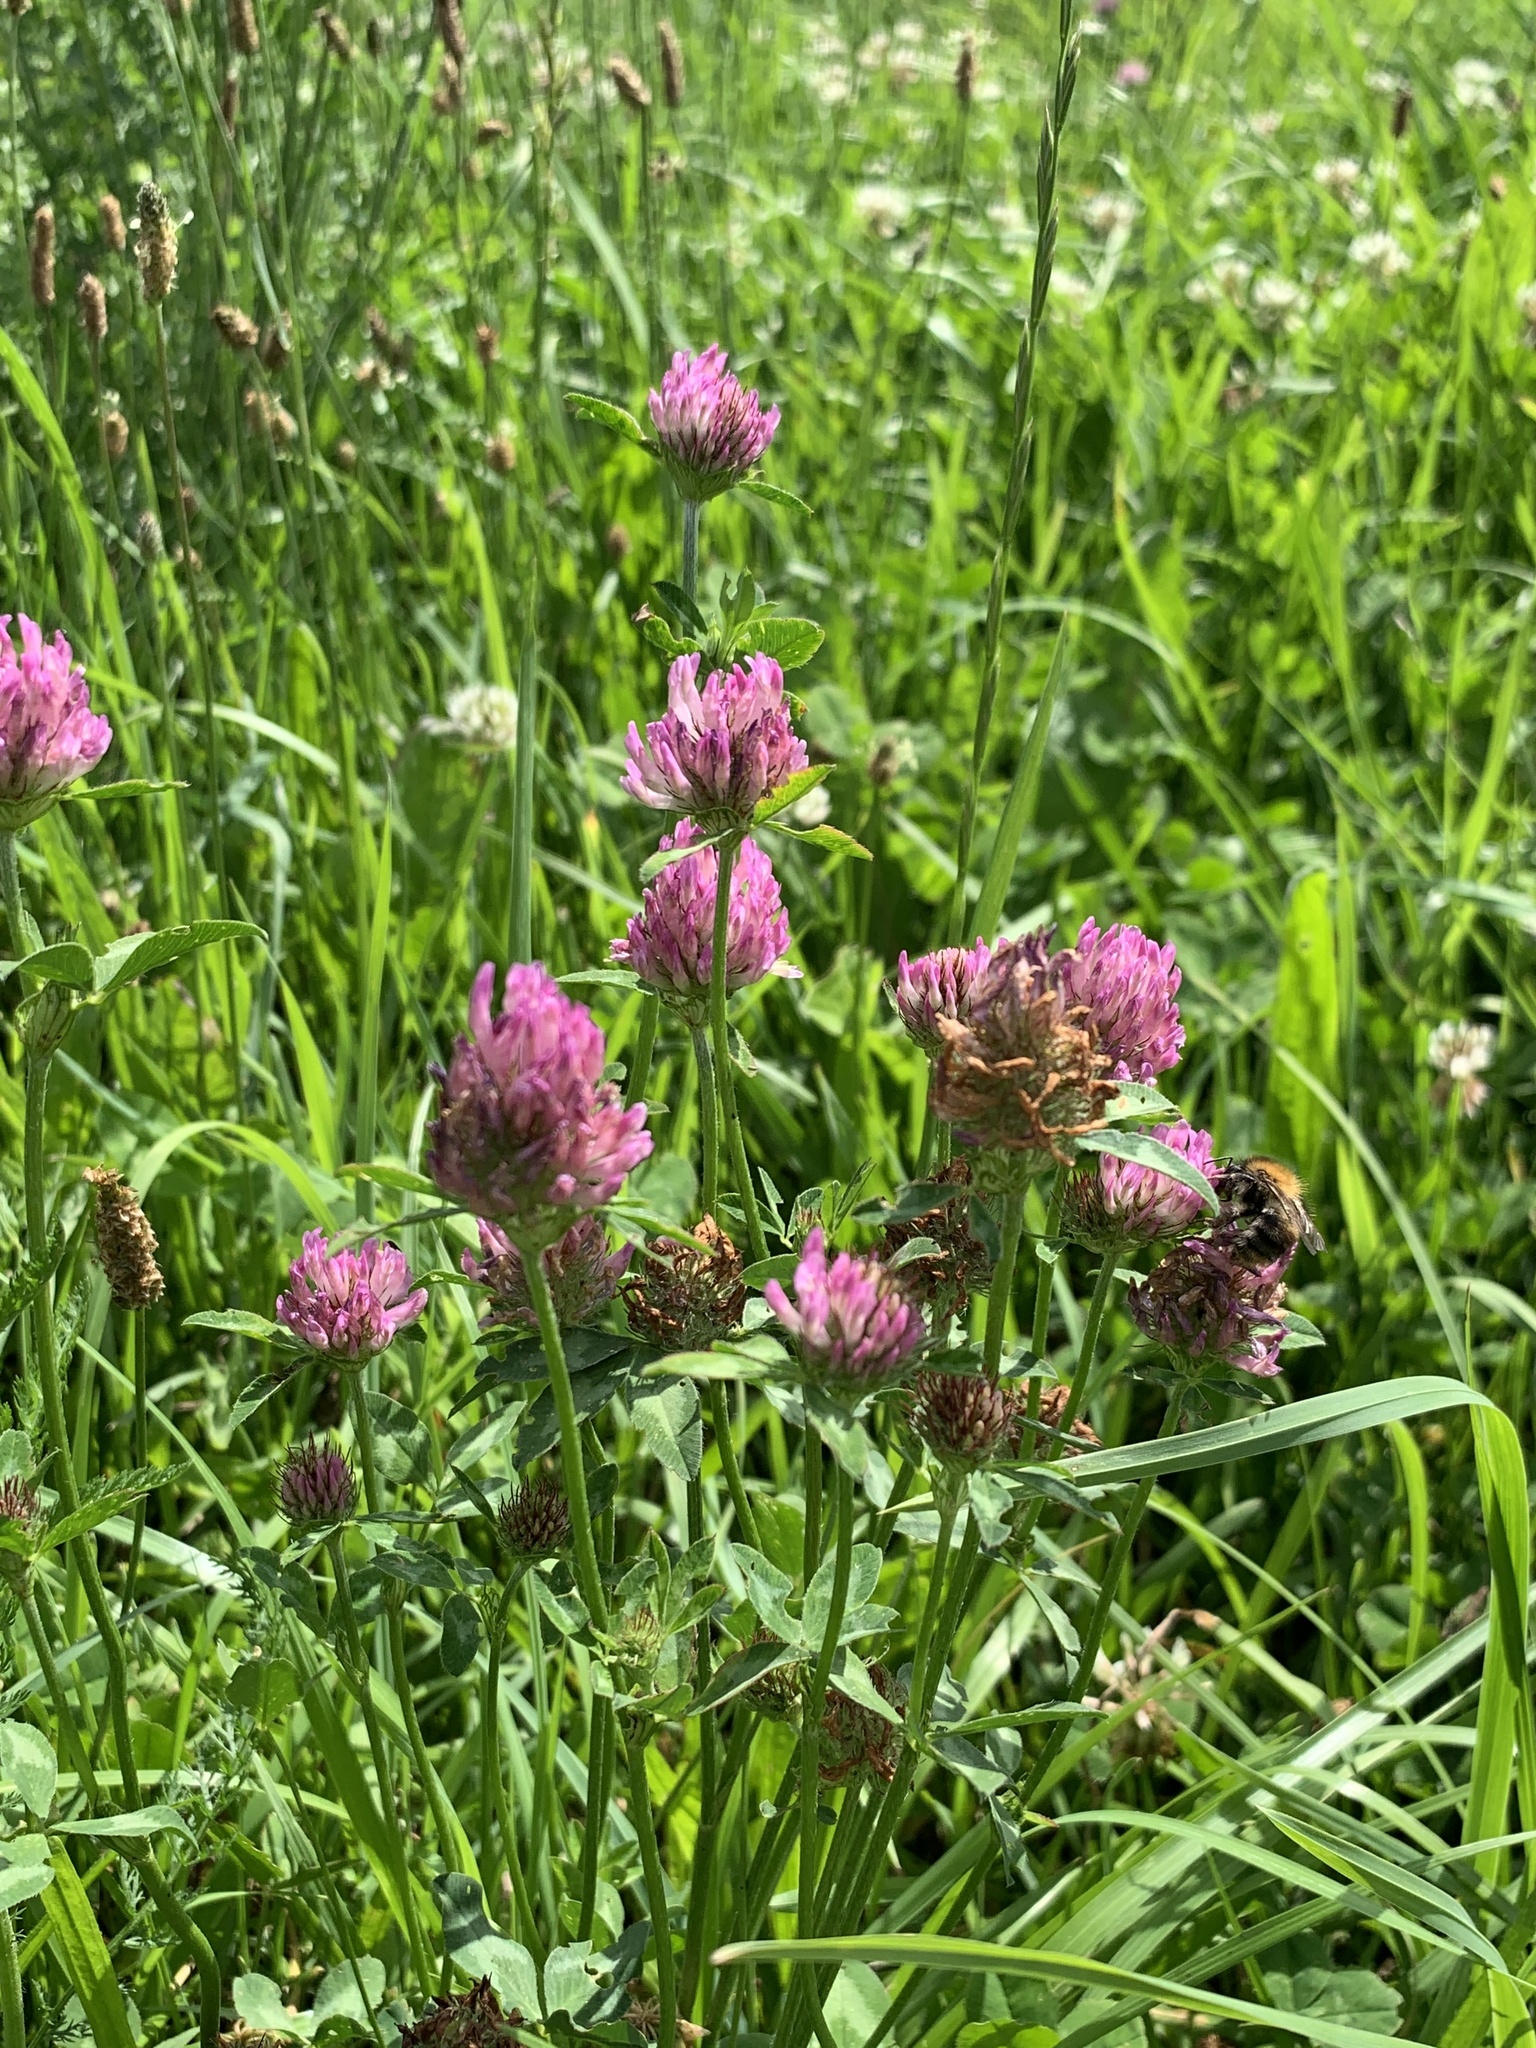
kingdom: Plantae
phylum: Tracheophyta
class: Magnoliopsida
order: Fabales
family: Fabaceae
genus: Trifolium
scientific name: Trifolium pratense
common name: Red clover
